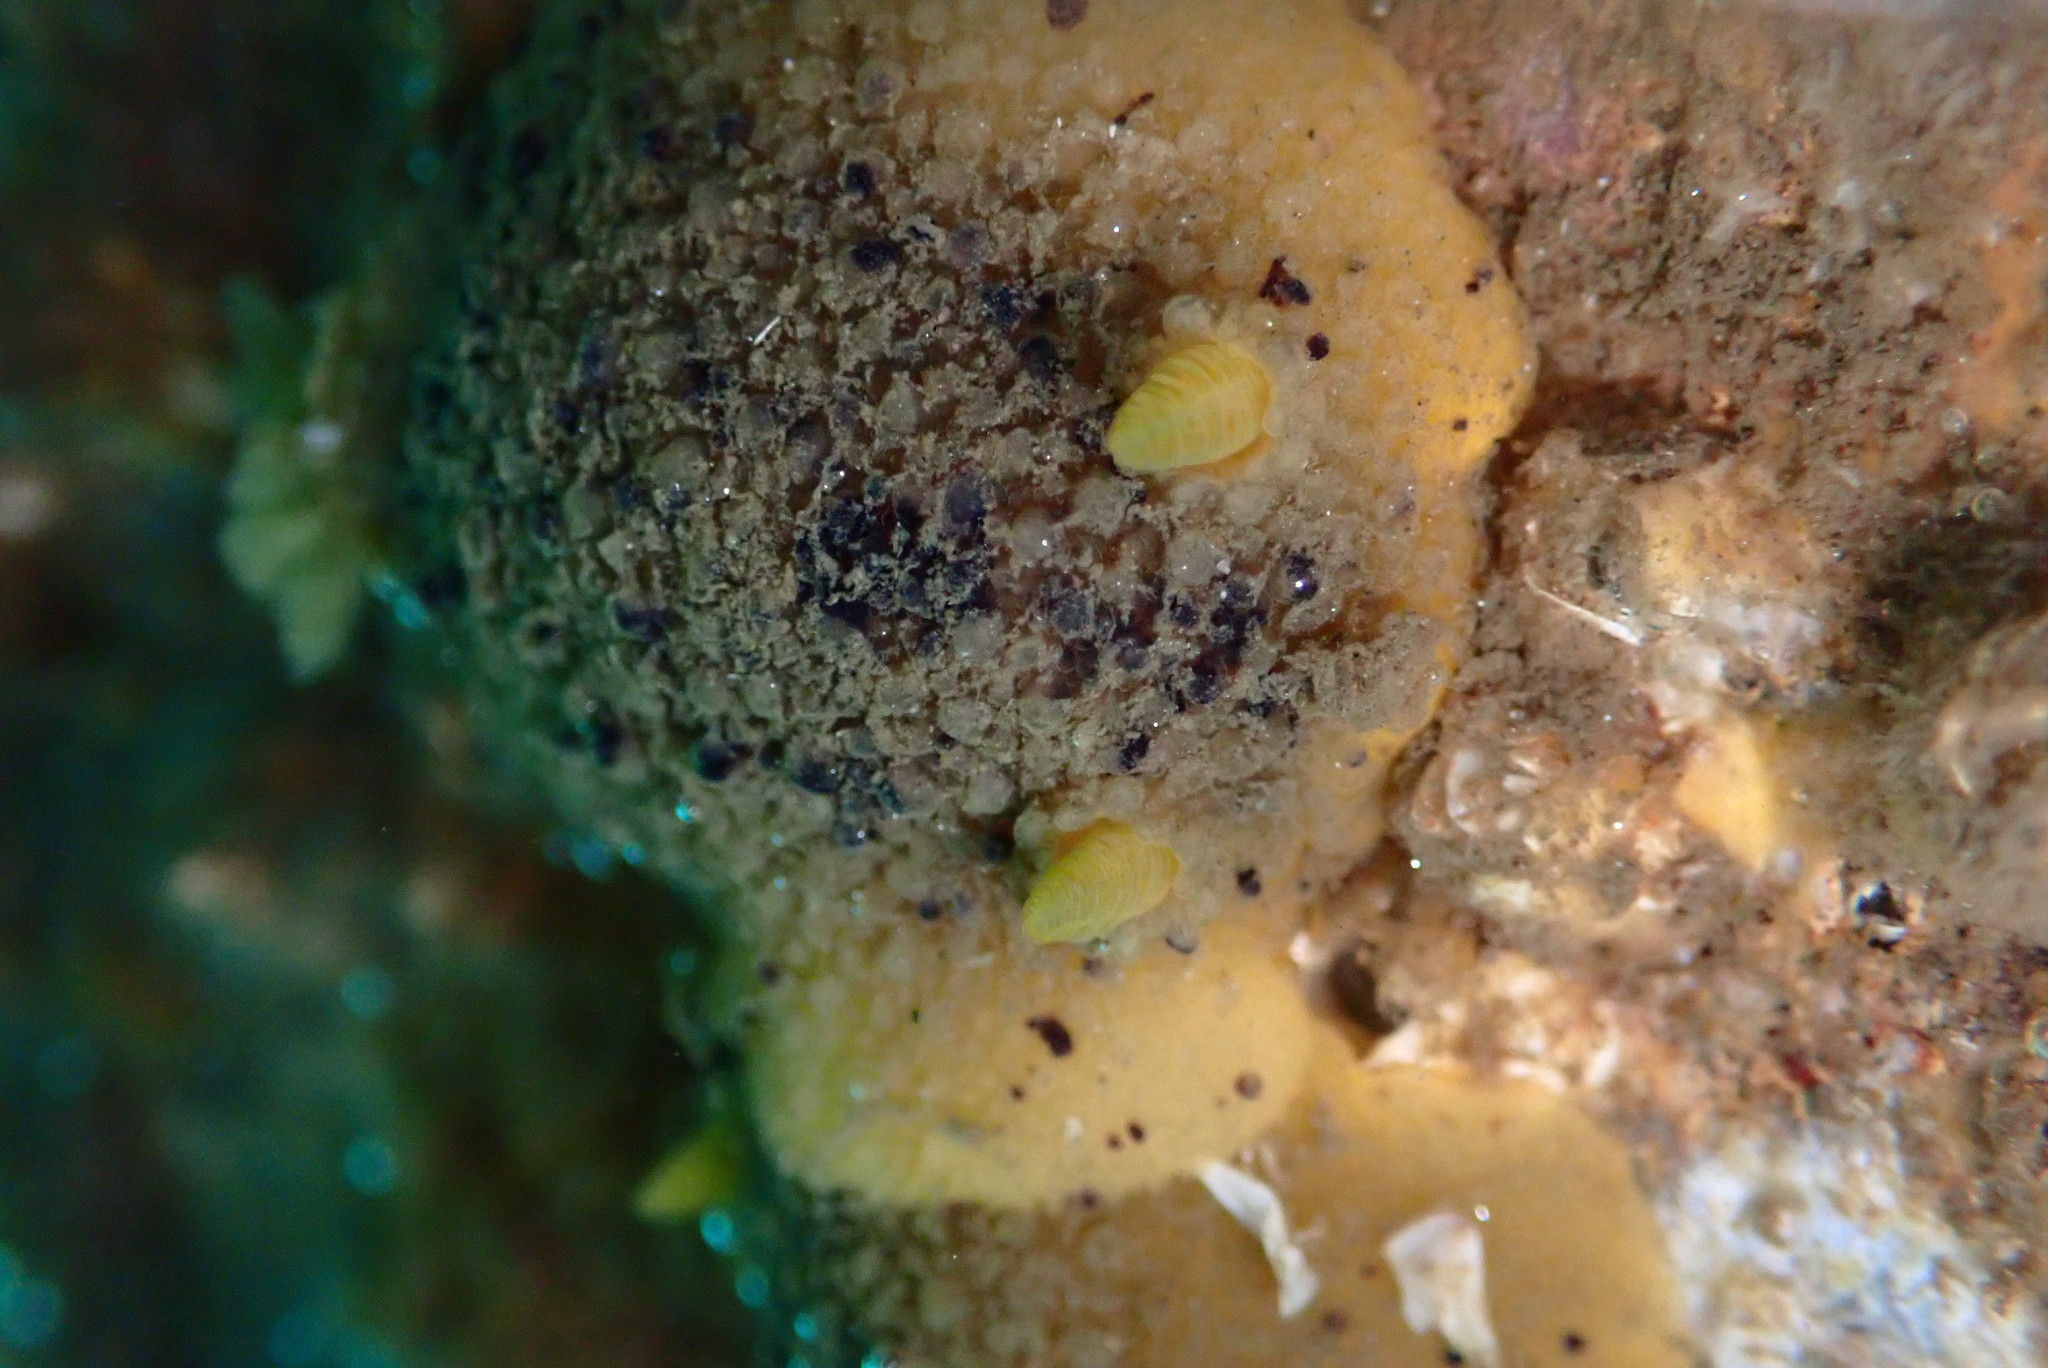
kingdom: Animalia
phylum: Mollusca
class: Gastropoda
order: Nudibranchia
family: Dorididae
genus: Doris
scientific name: Doris montereyensis
